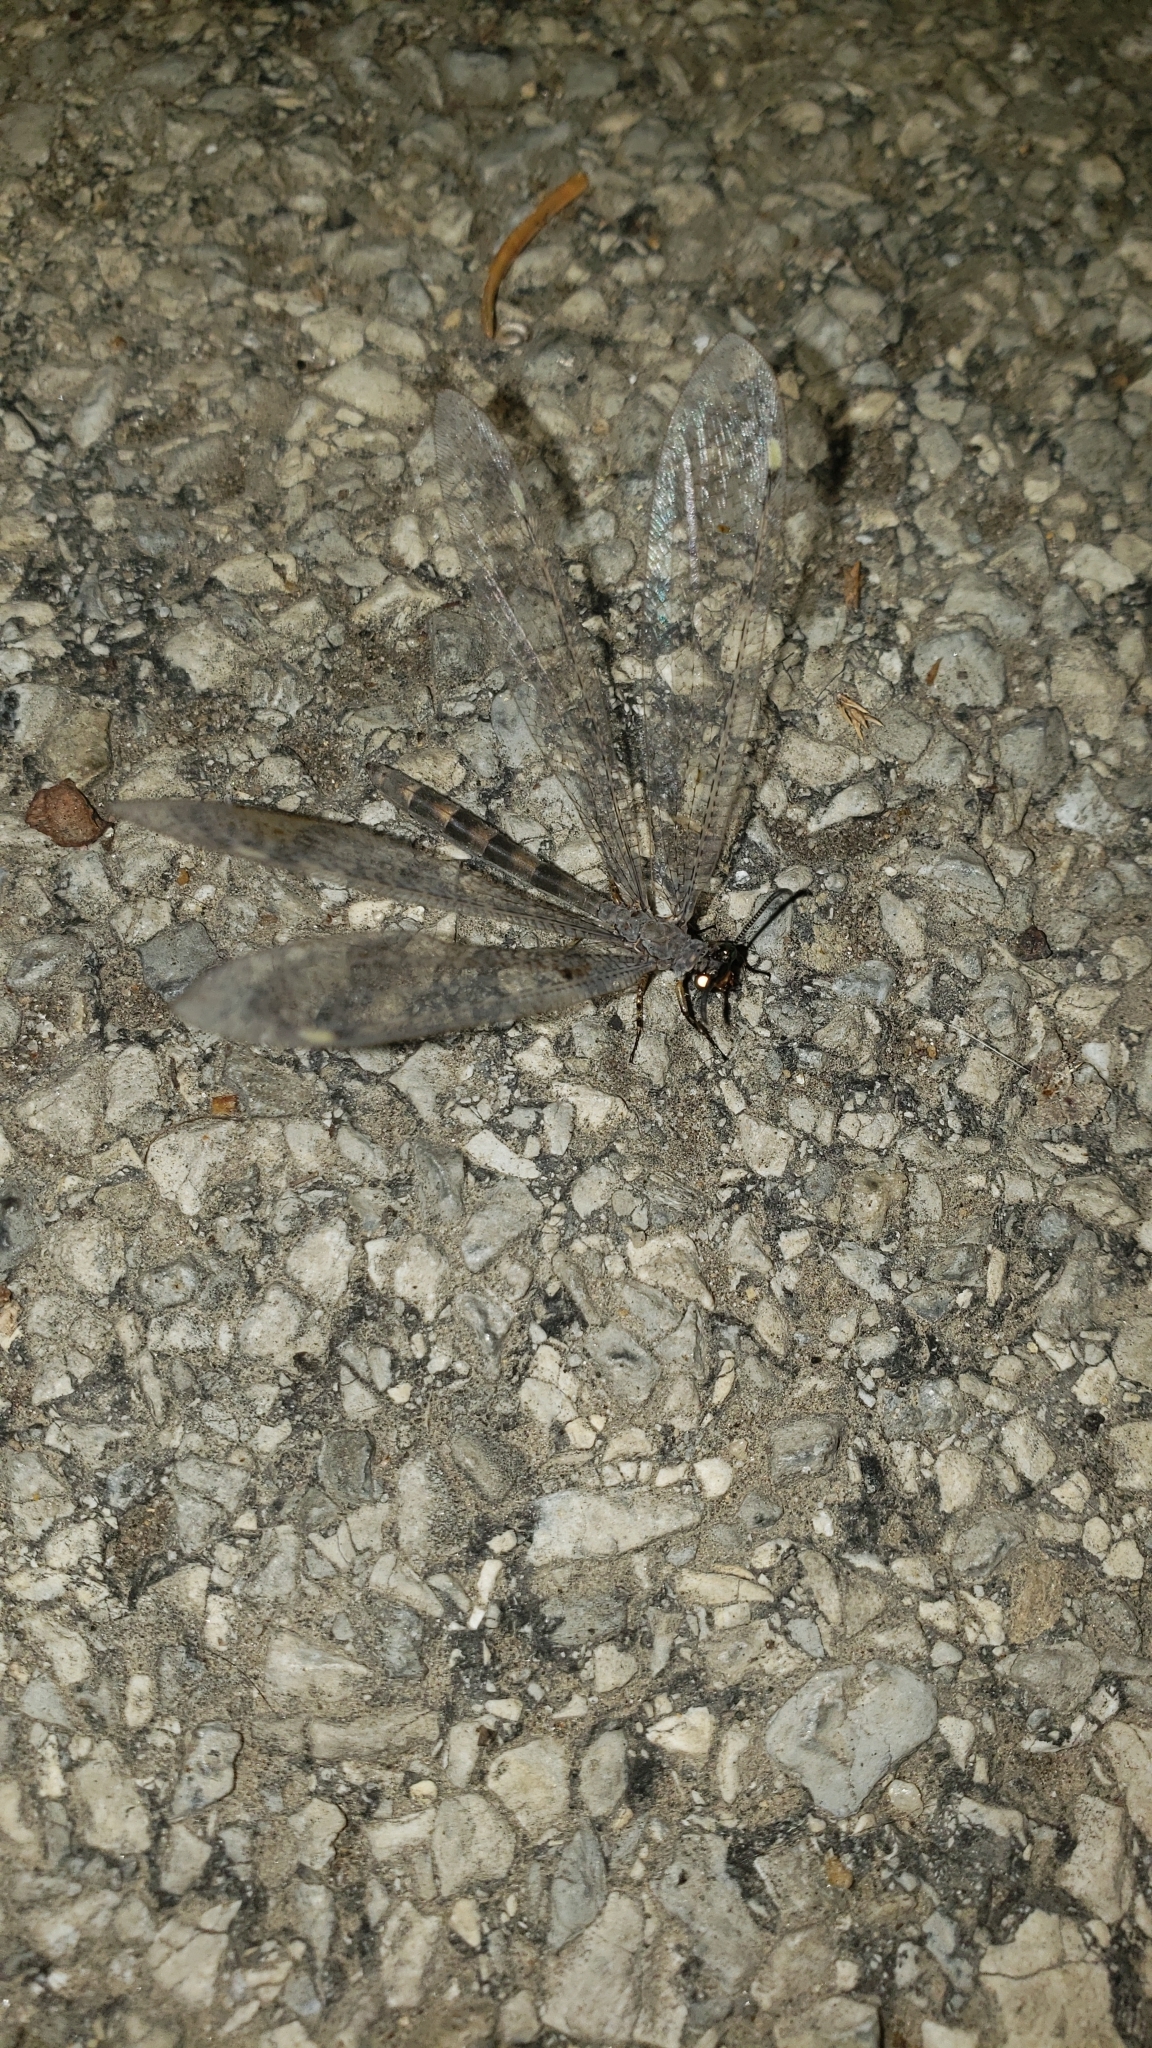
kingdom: Animalia
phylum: Arthropoda
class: Insecta
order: Neuroptera
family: Myrmeleontidae
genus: Myrmeleon
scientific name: Myrmeleon immaculatus
